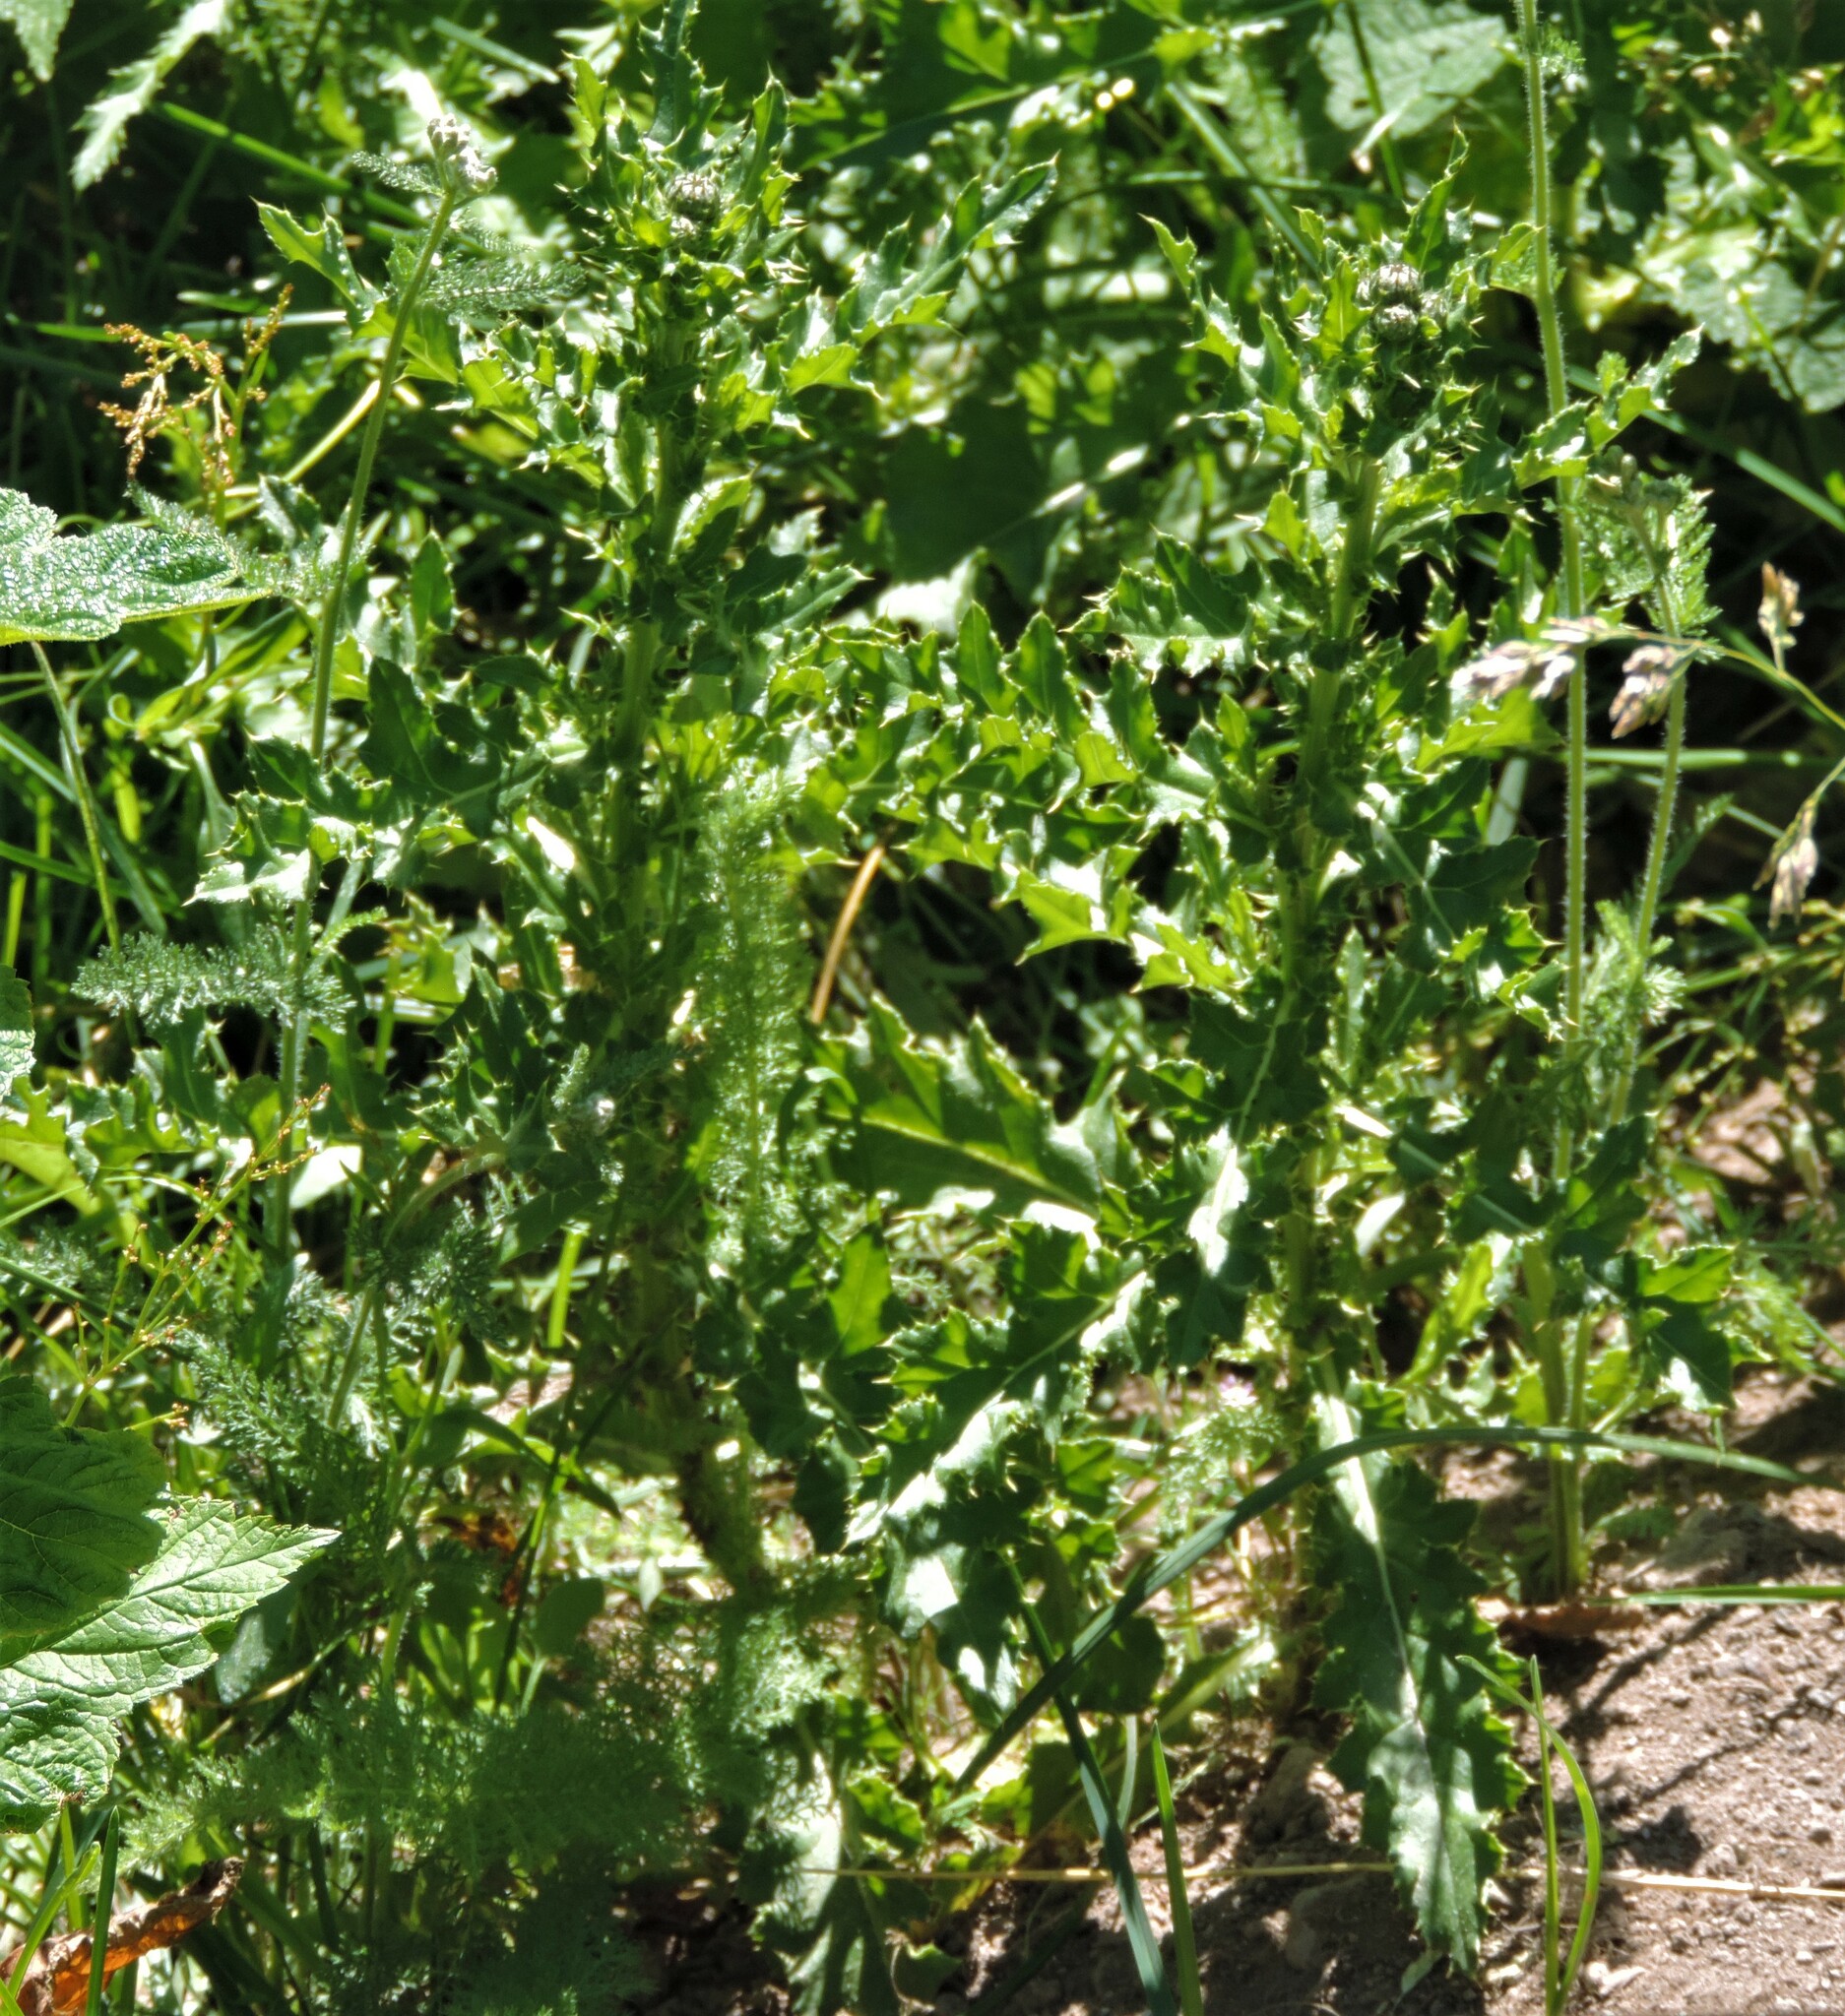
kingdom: Plantae
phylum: Tracheophyta
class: Magnoliopsida
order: Asterales
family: Asteraceae
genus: Cirsium
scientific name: Cirsium arvense
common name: Creeping thistle
